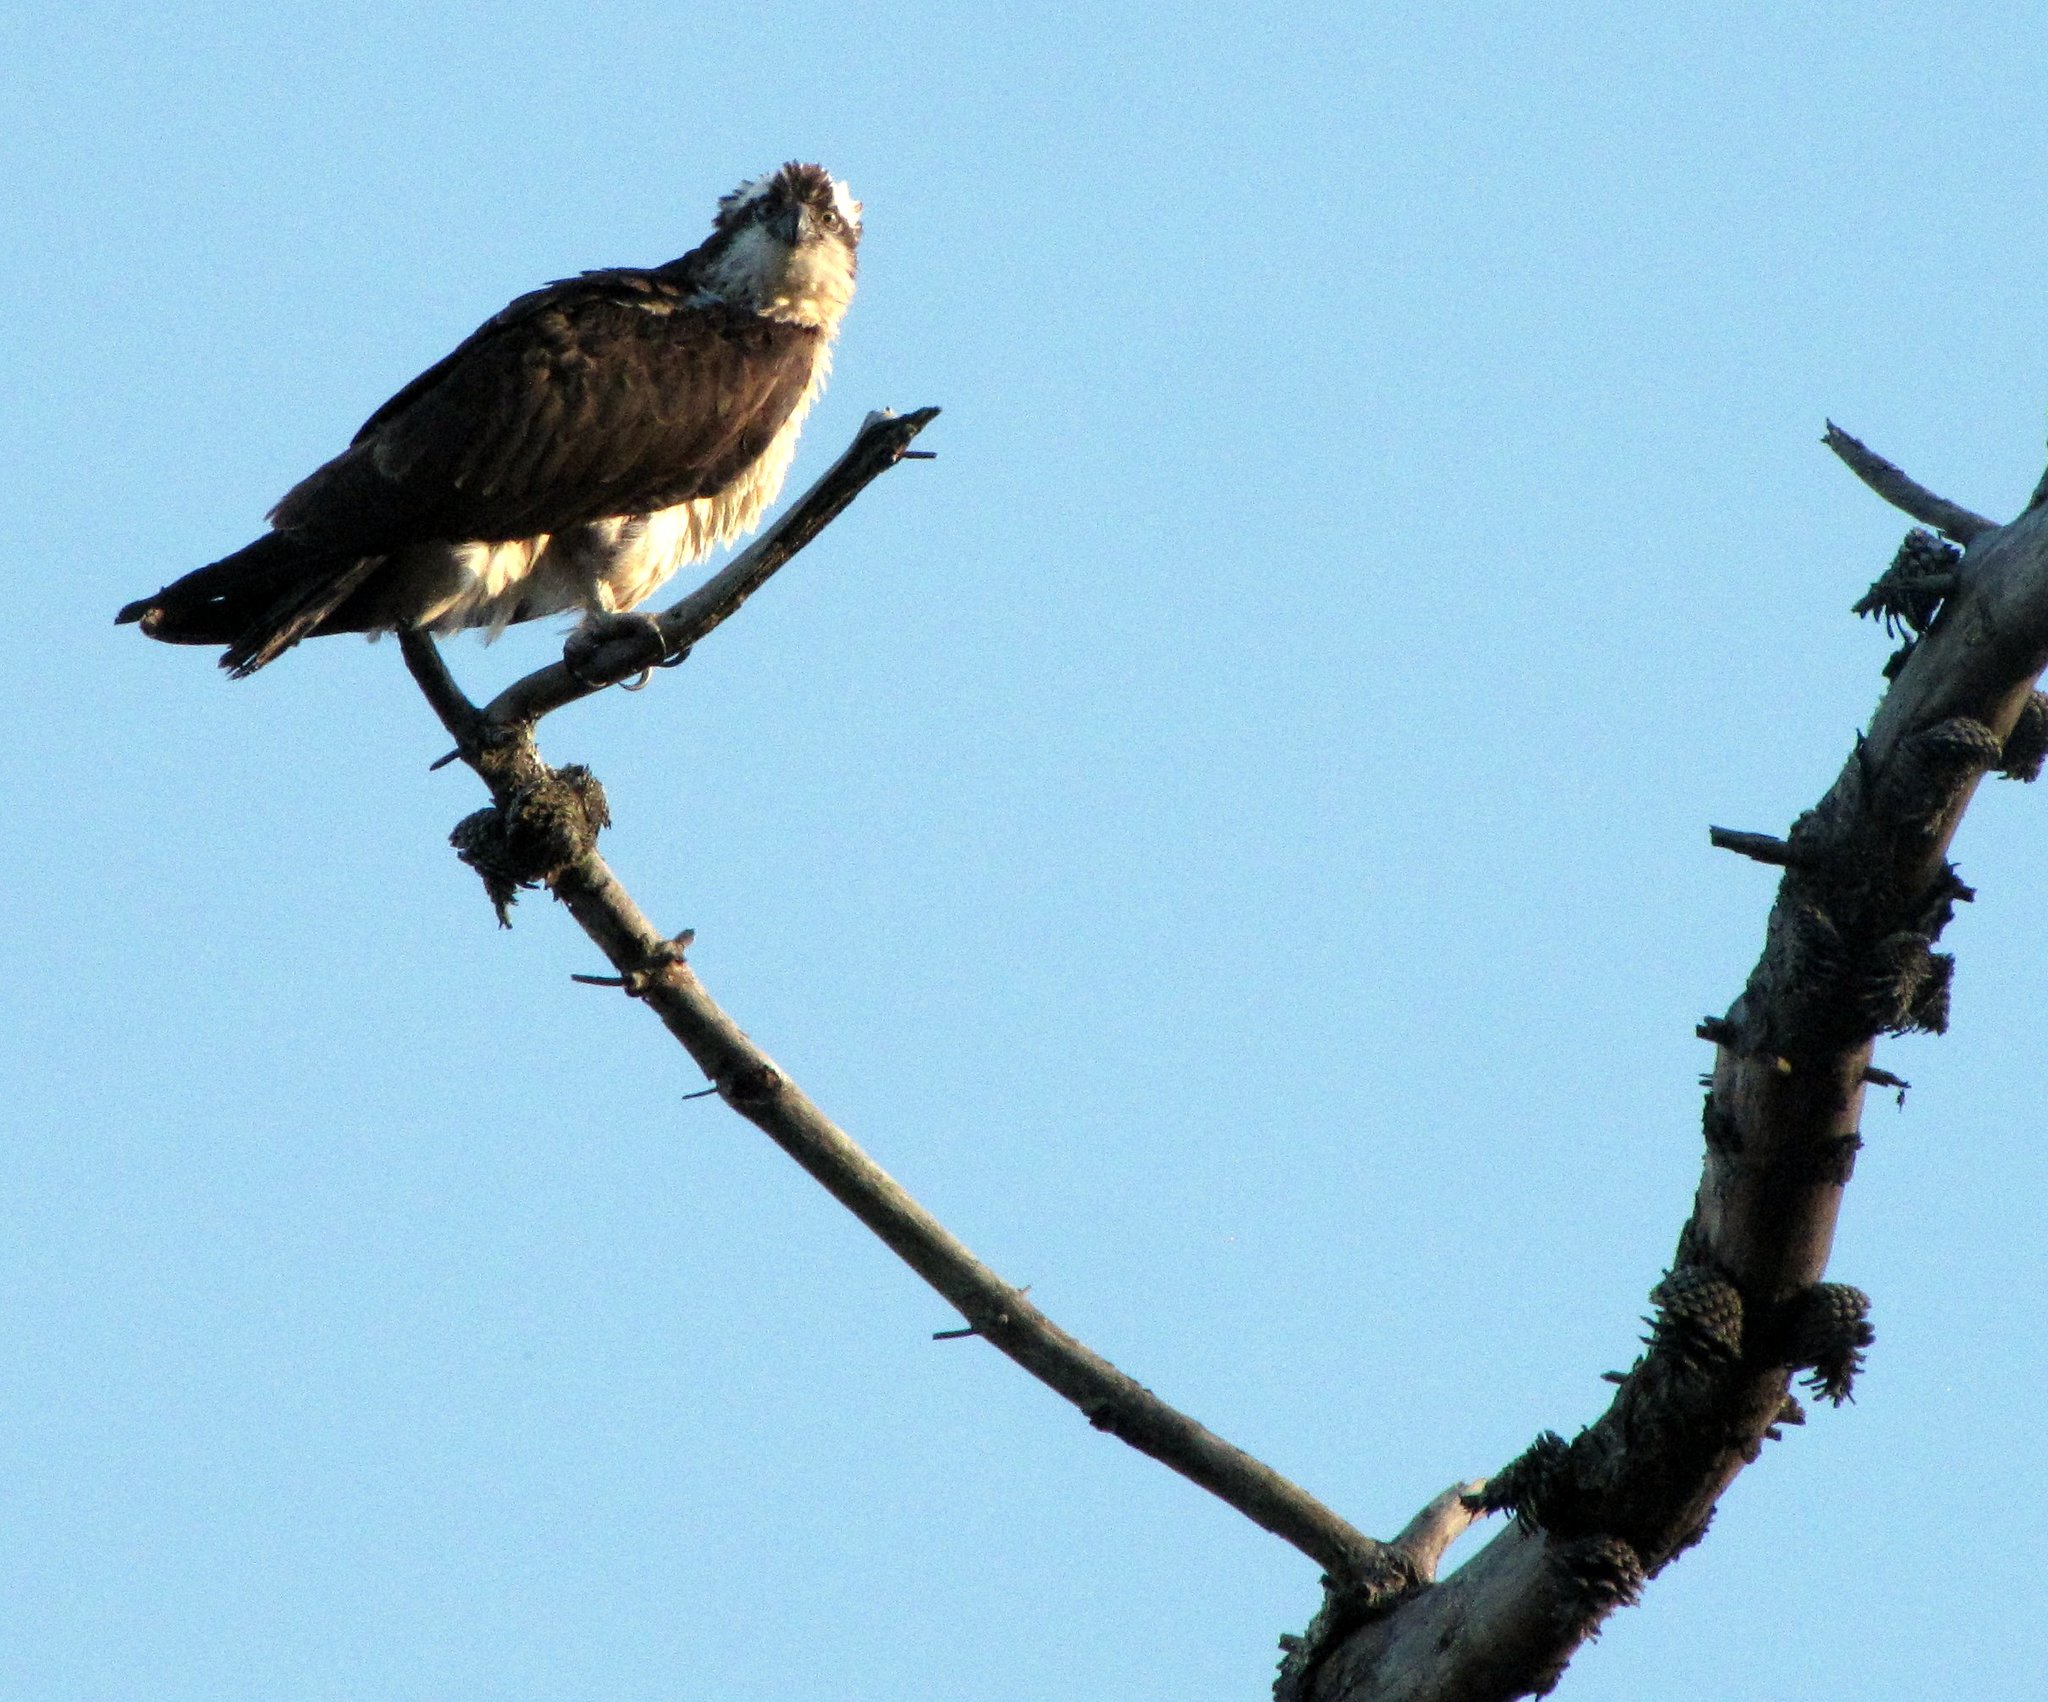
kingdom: Animalia
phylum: Chordata
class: Aves
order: Accipitriformes
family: Pandionidae
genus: Pandion
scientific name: Pandion haliaetus
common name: Osprey
